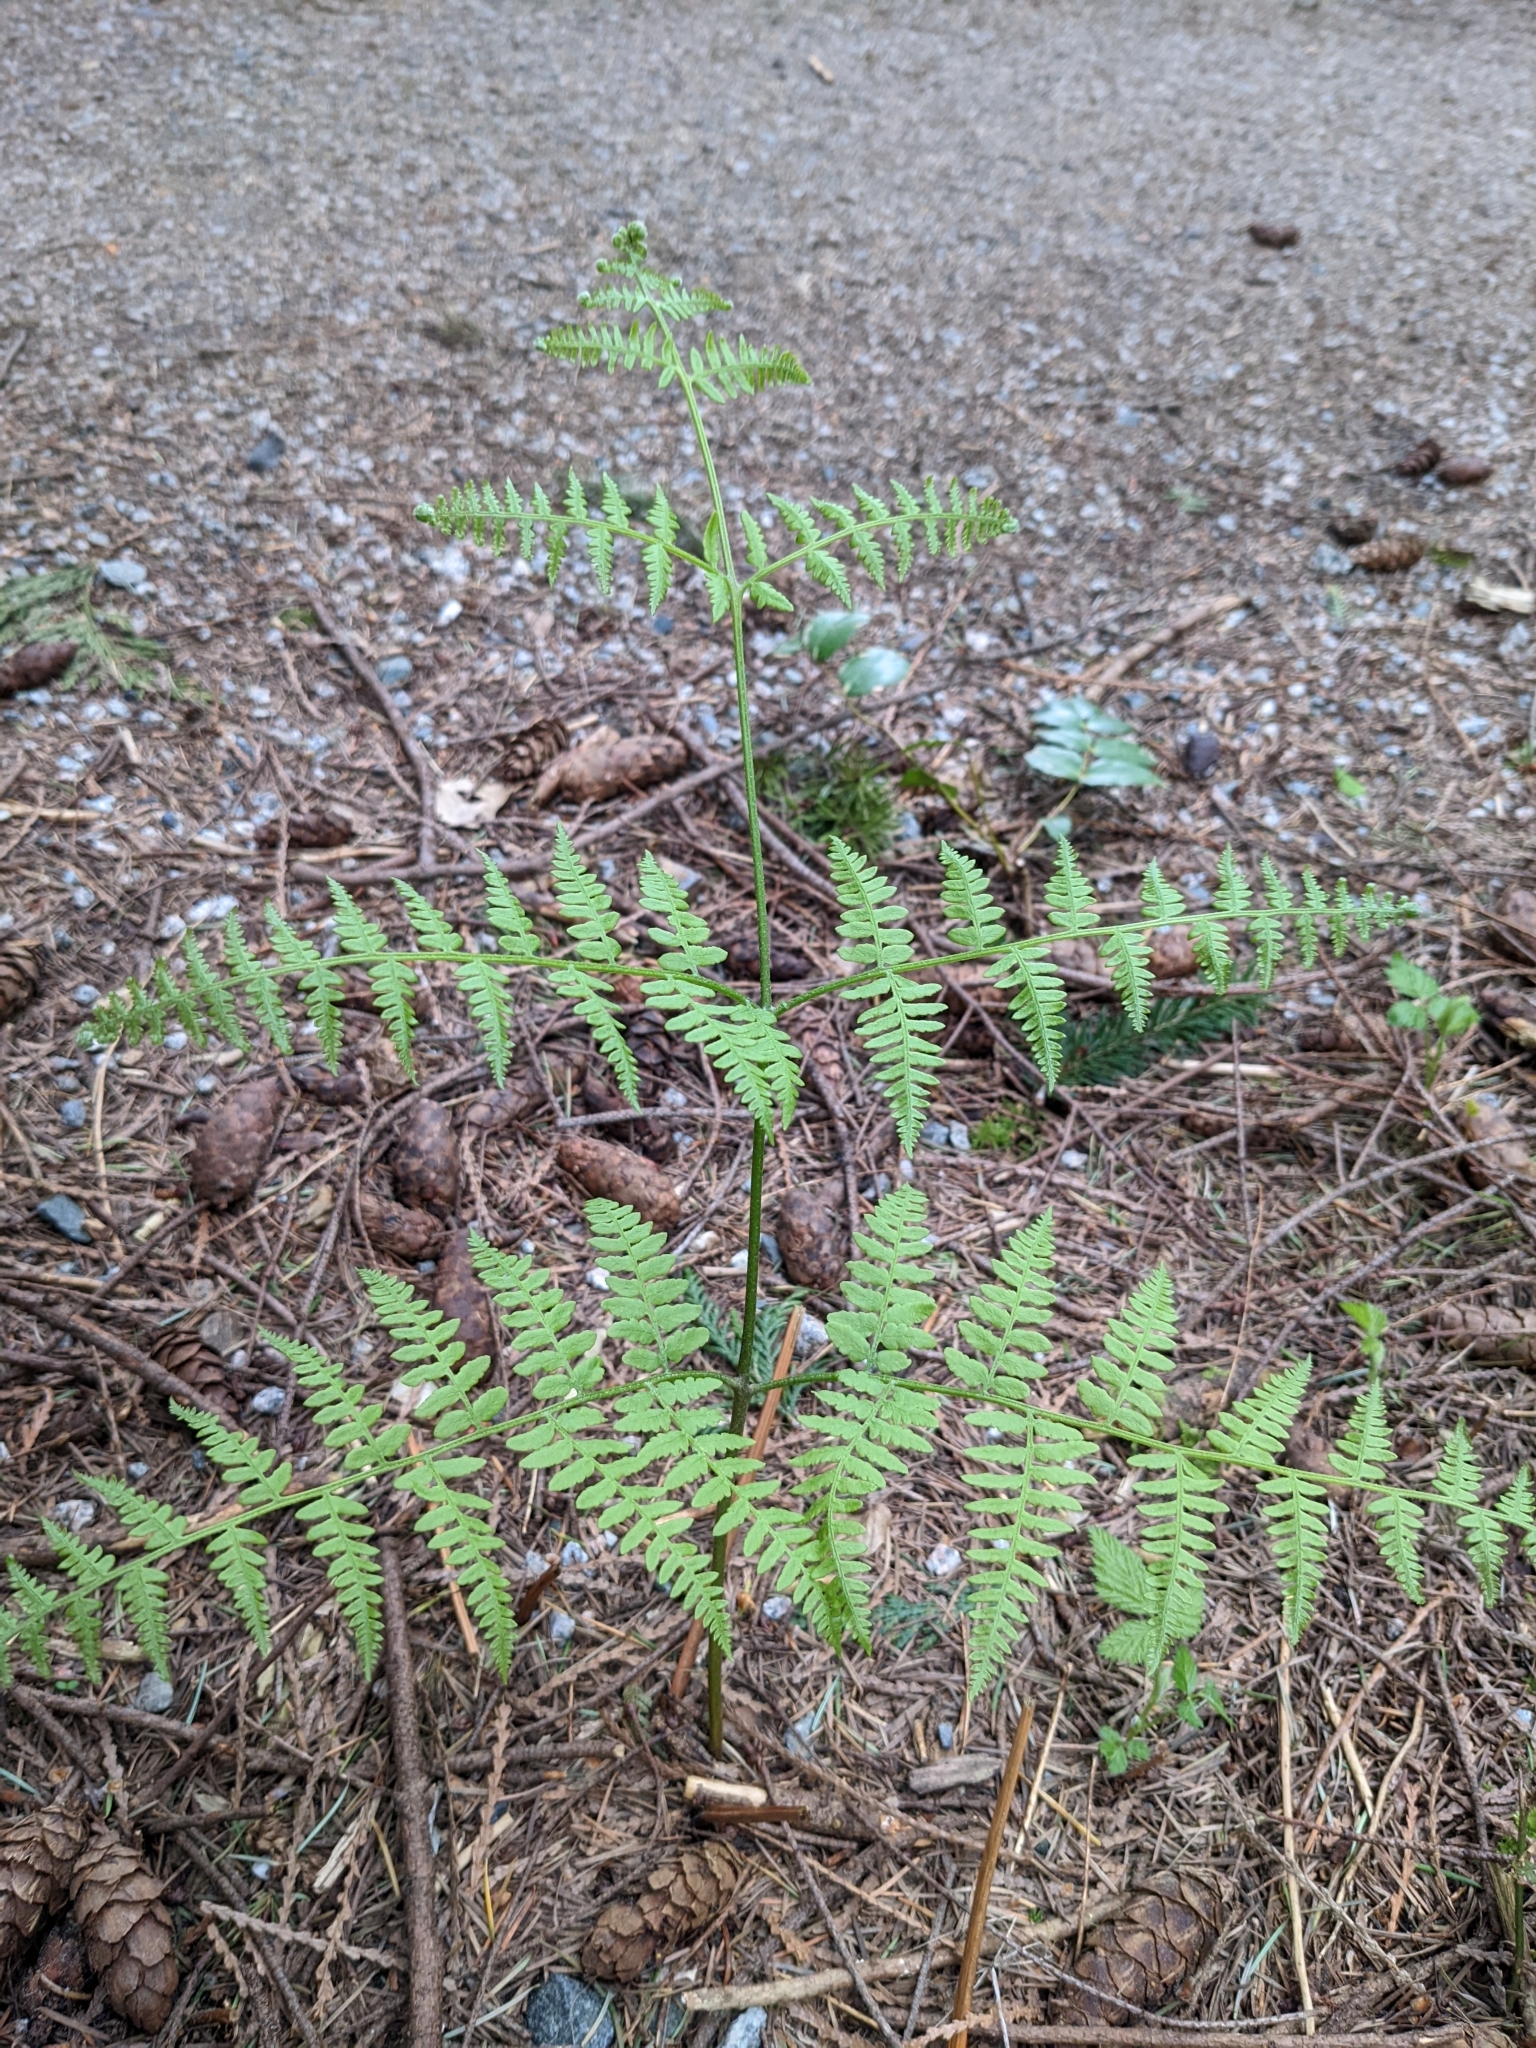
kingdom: Plantae
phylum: Tracheophyta
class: Polypodiopsida
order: Polypodiales
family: Dennstaedtiaceae
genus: Pteridium
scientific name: Pteridium aquilinum
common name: Bracken
